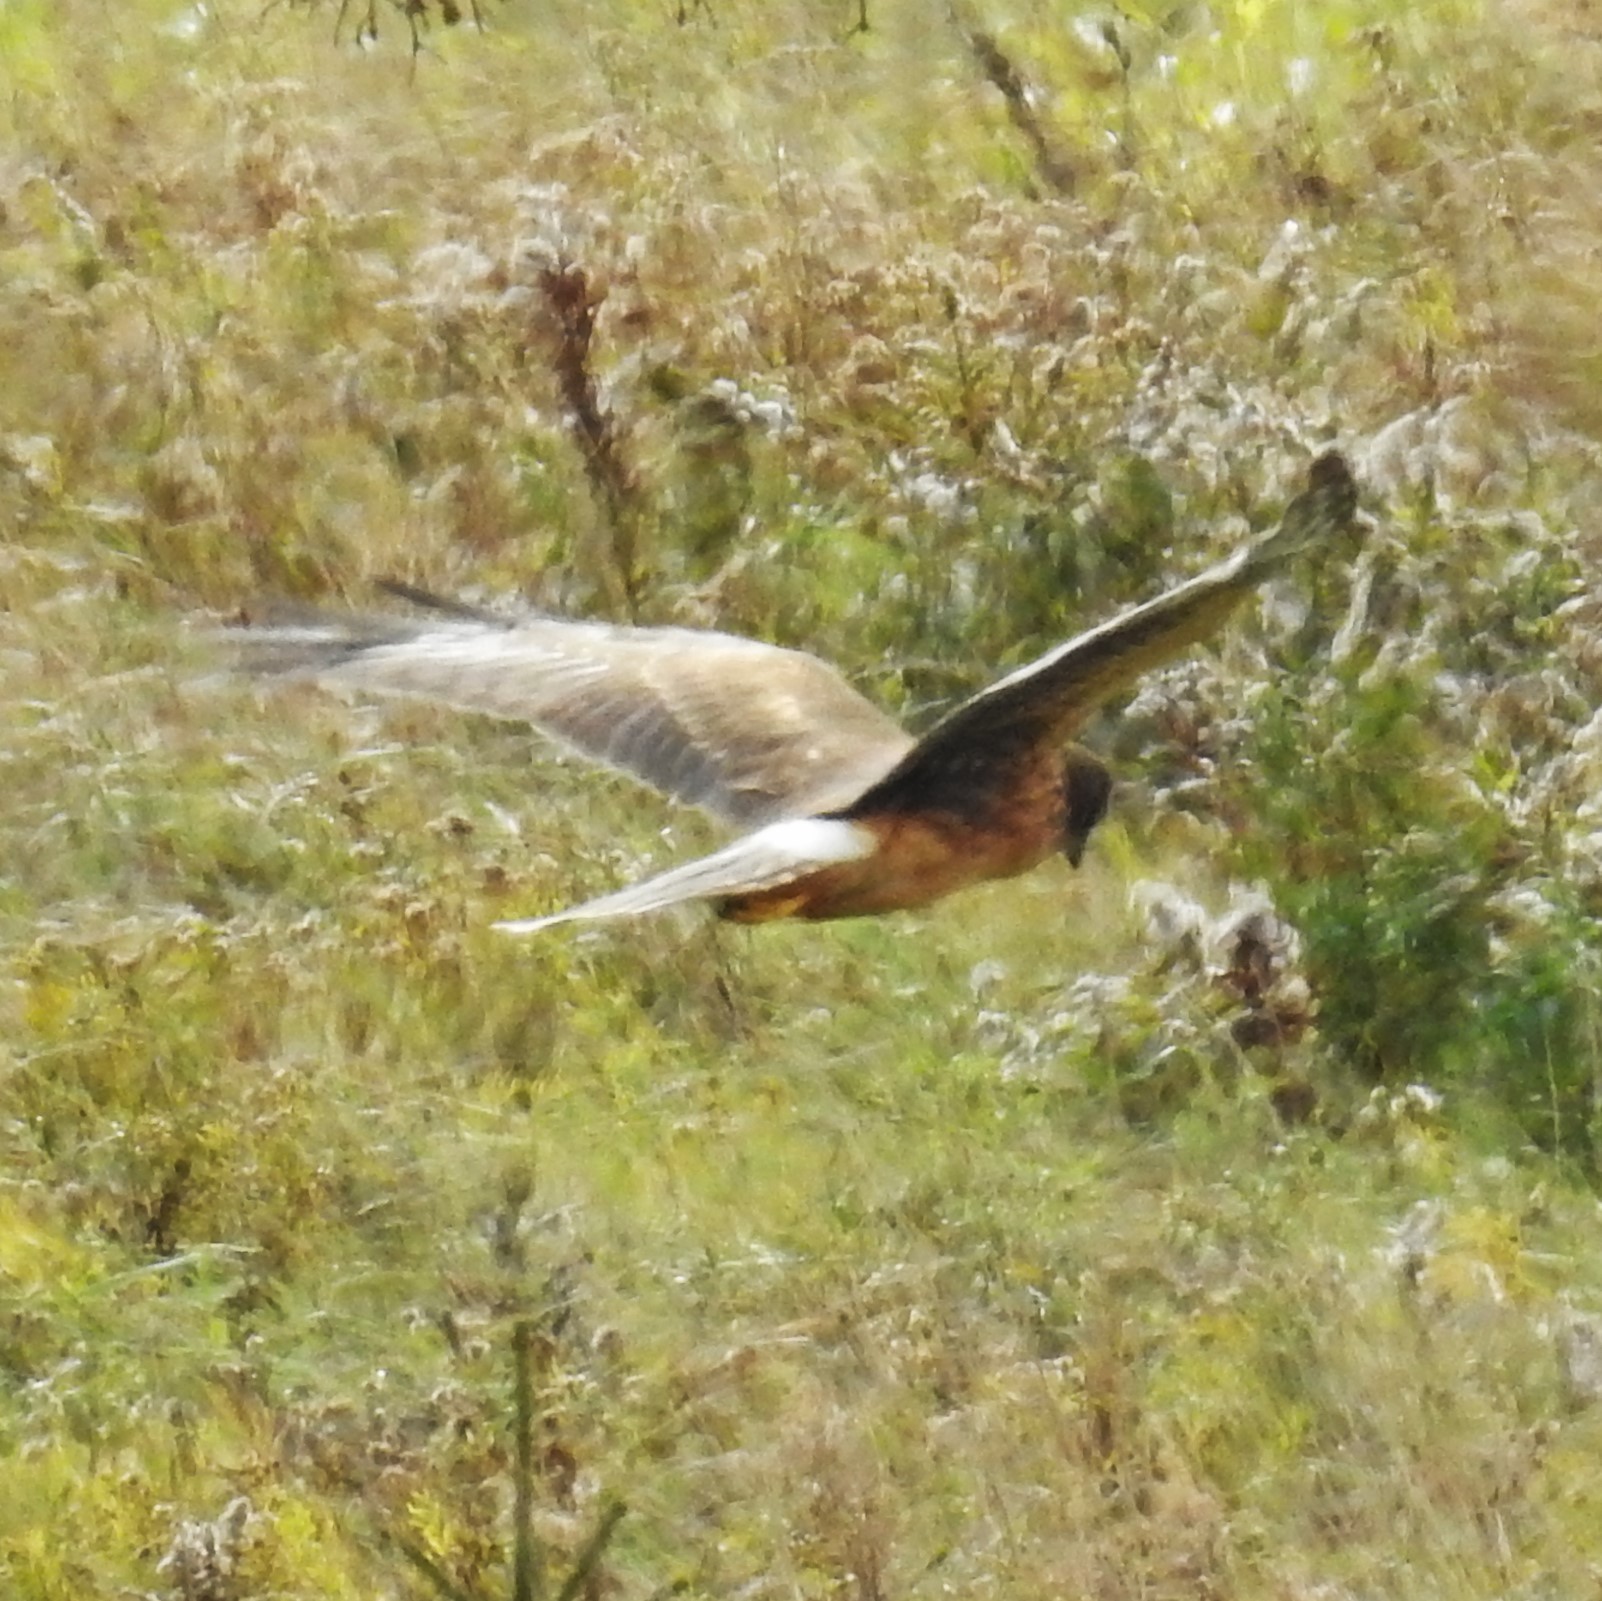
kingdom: Animalia
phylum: Chordata
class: Aves
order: Accipitriformes
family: Accipitridae
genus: Circus
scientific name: Circus cyaneus
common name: Hen harrier
